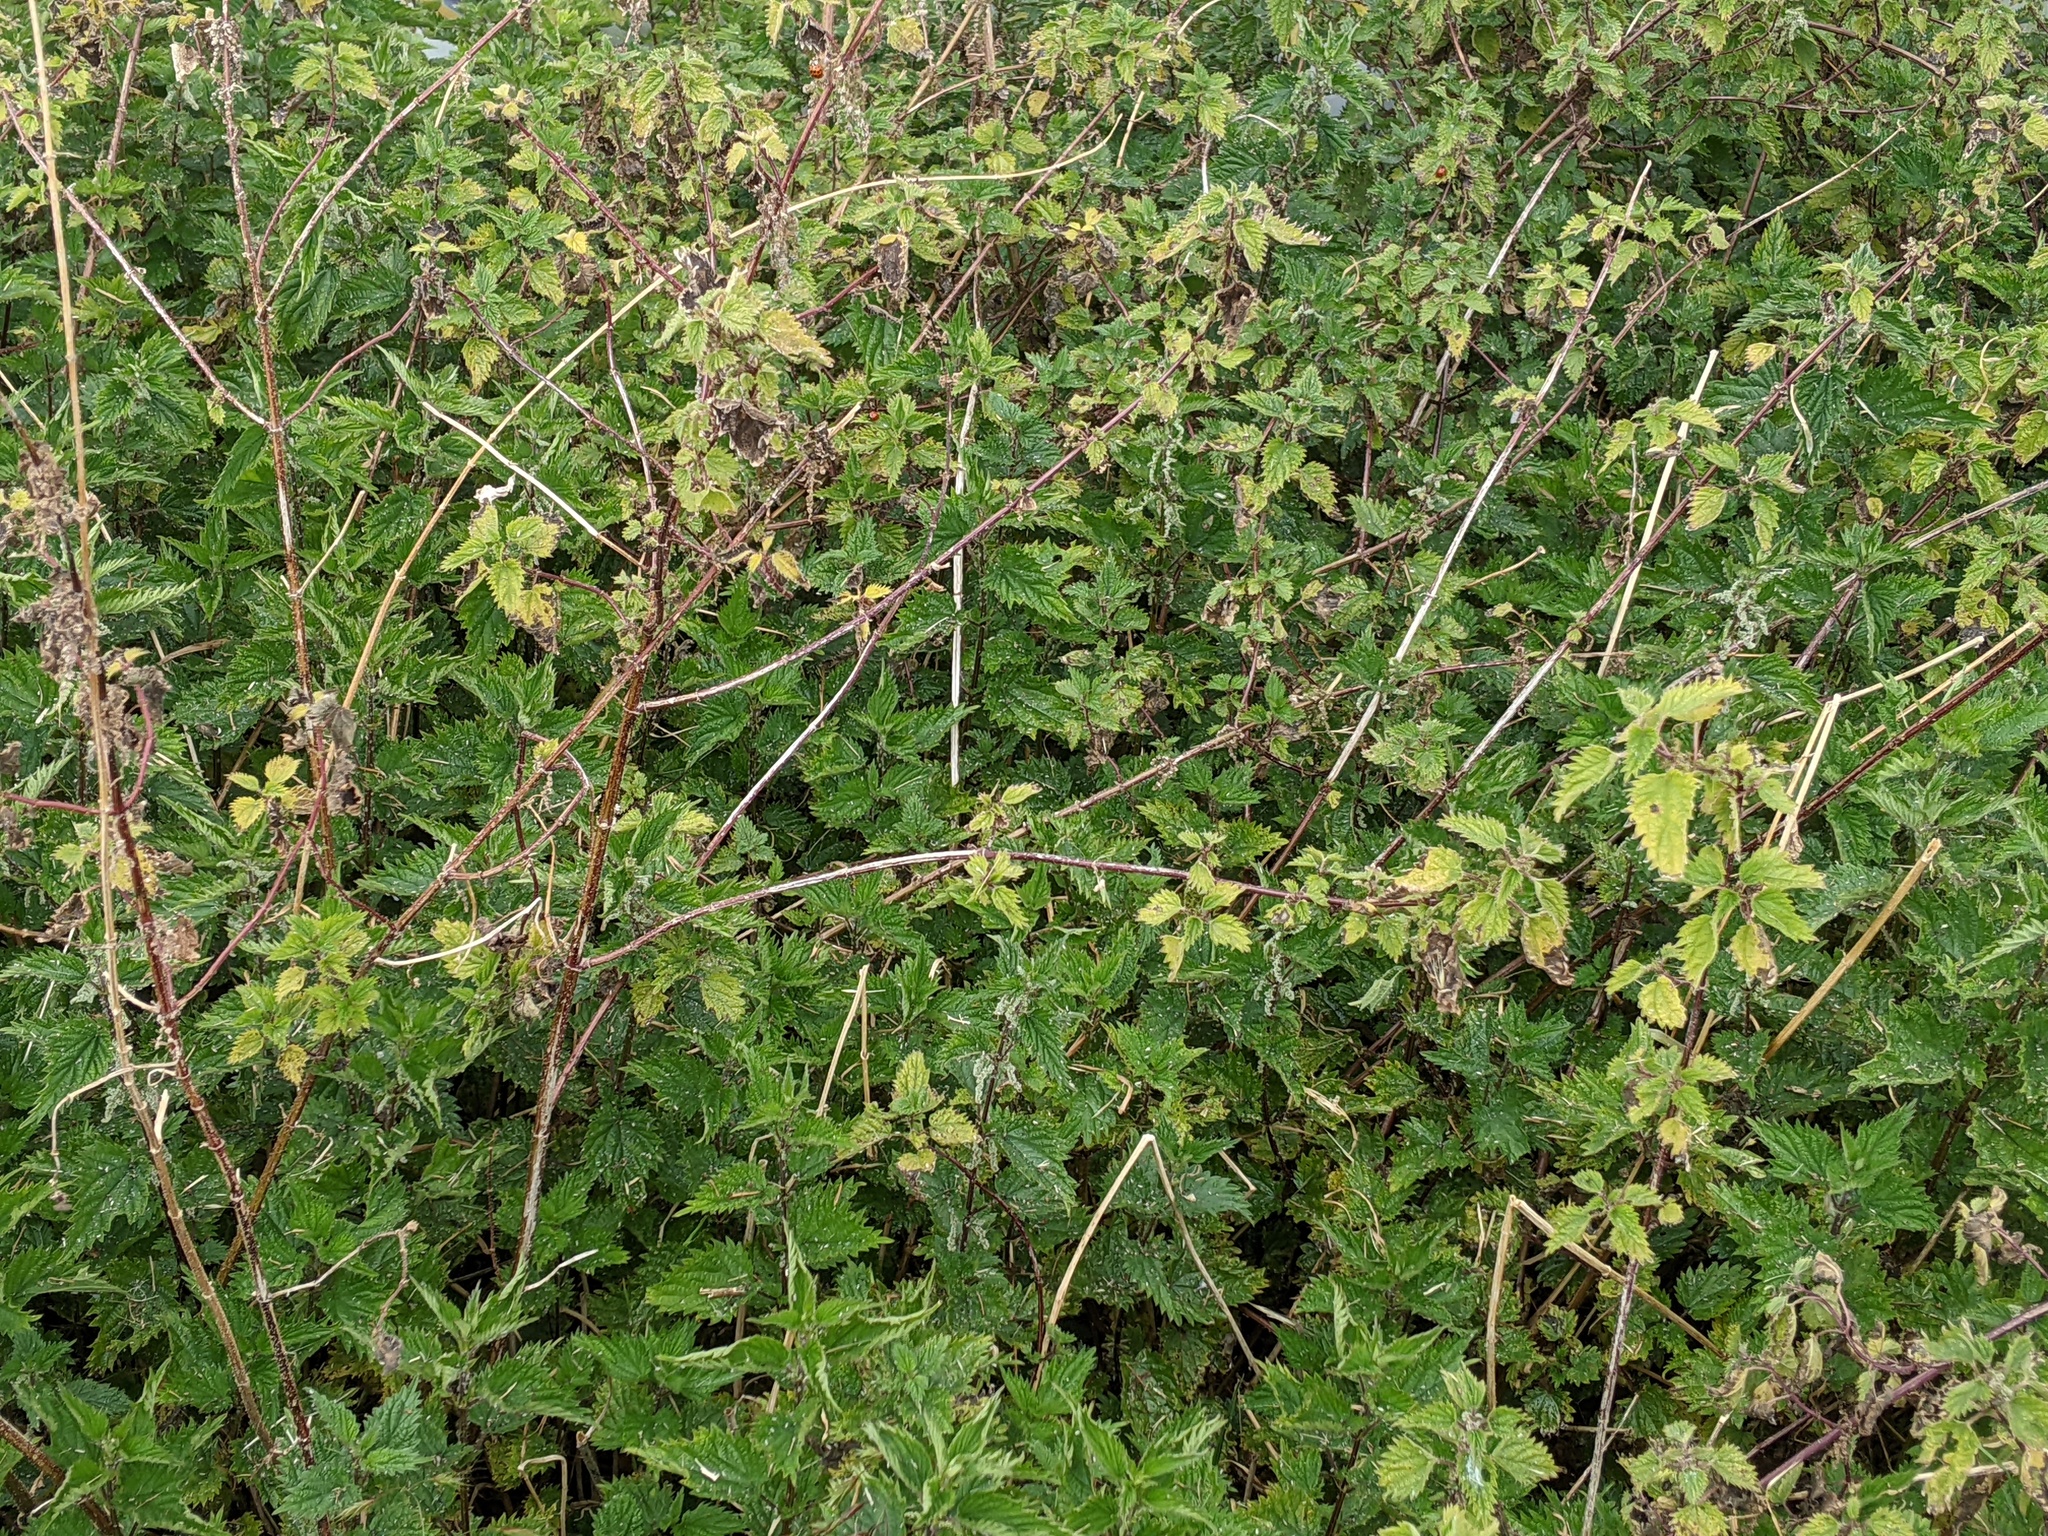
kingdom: Plantae
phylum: Tracheophyta
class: Magnoliopsida
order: Rosales
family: Urticaceae
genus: Urtica
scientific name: Urtica dioica
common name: Common nettle
